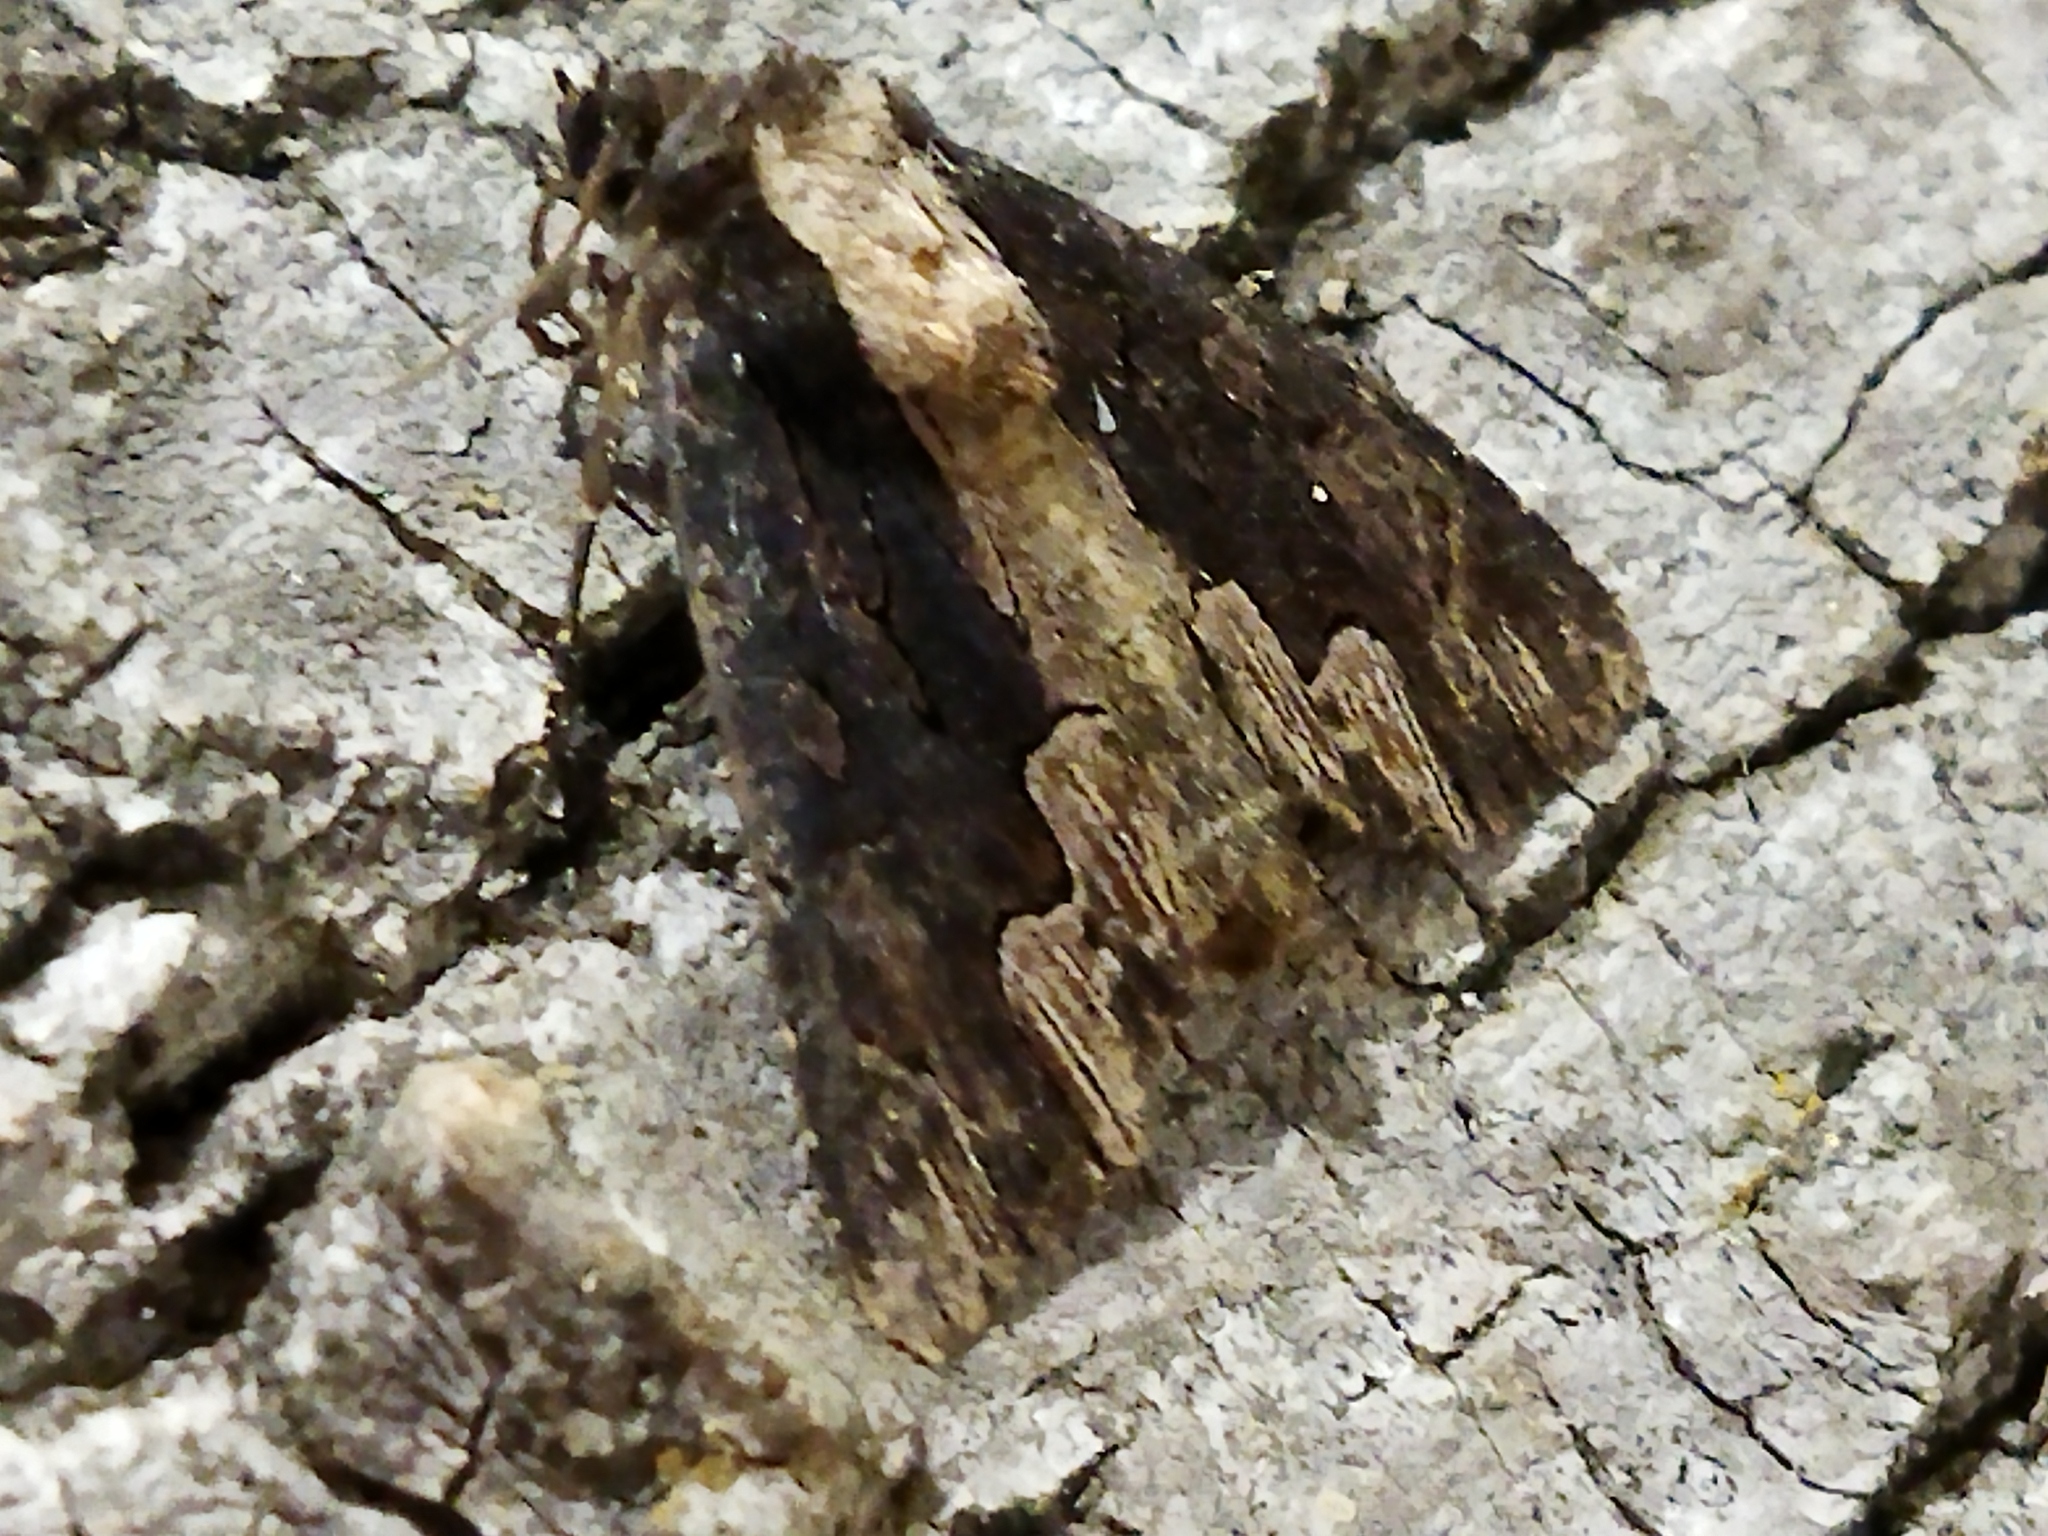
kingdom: Animalia
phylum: Arthropoda
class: Insecta
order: Lepidoptera
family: Noctuidae
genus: Dypterygia
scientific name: Dypterygia scabriuscula
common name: Bird's wing
